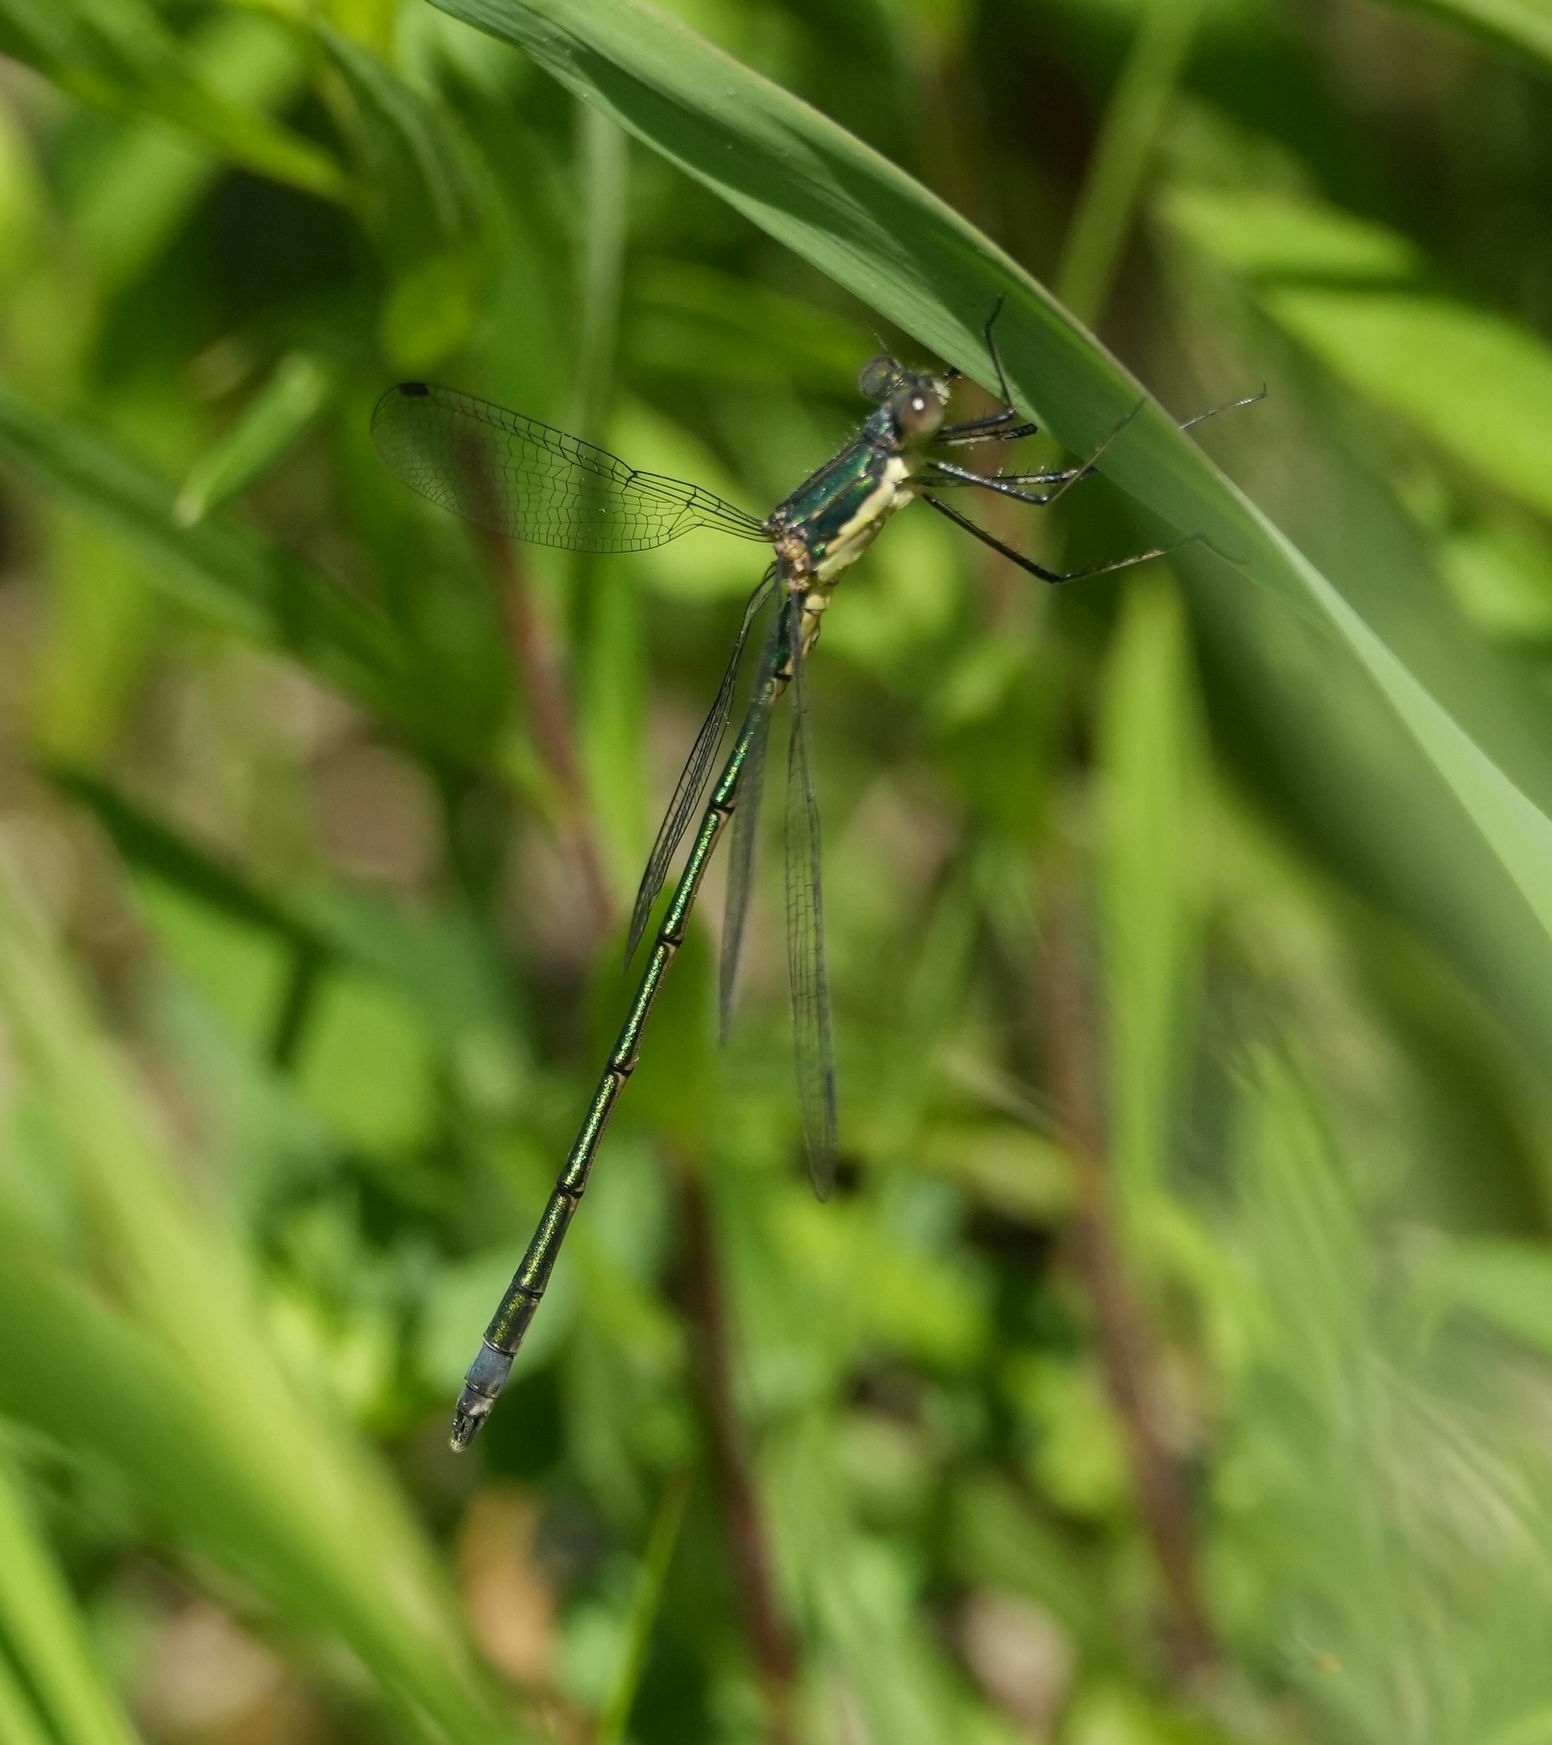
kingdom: Animalia
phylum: Arthropoda
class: Insecta
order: Odonata
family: Lestidae
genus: Lestes
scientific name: Lestes inaequalis
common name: Elegant spreadwing
